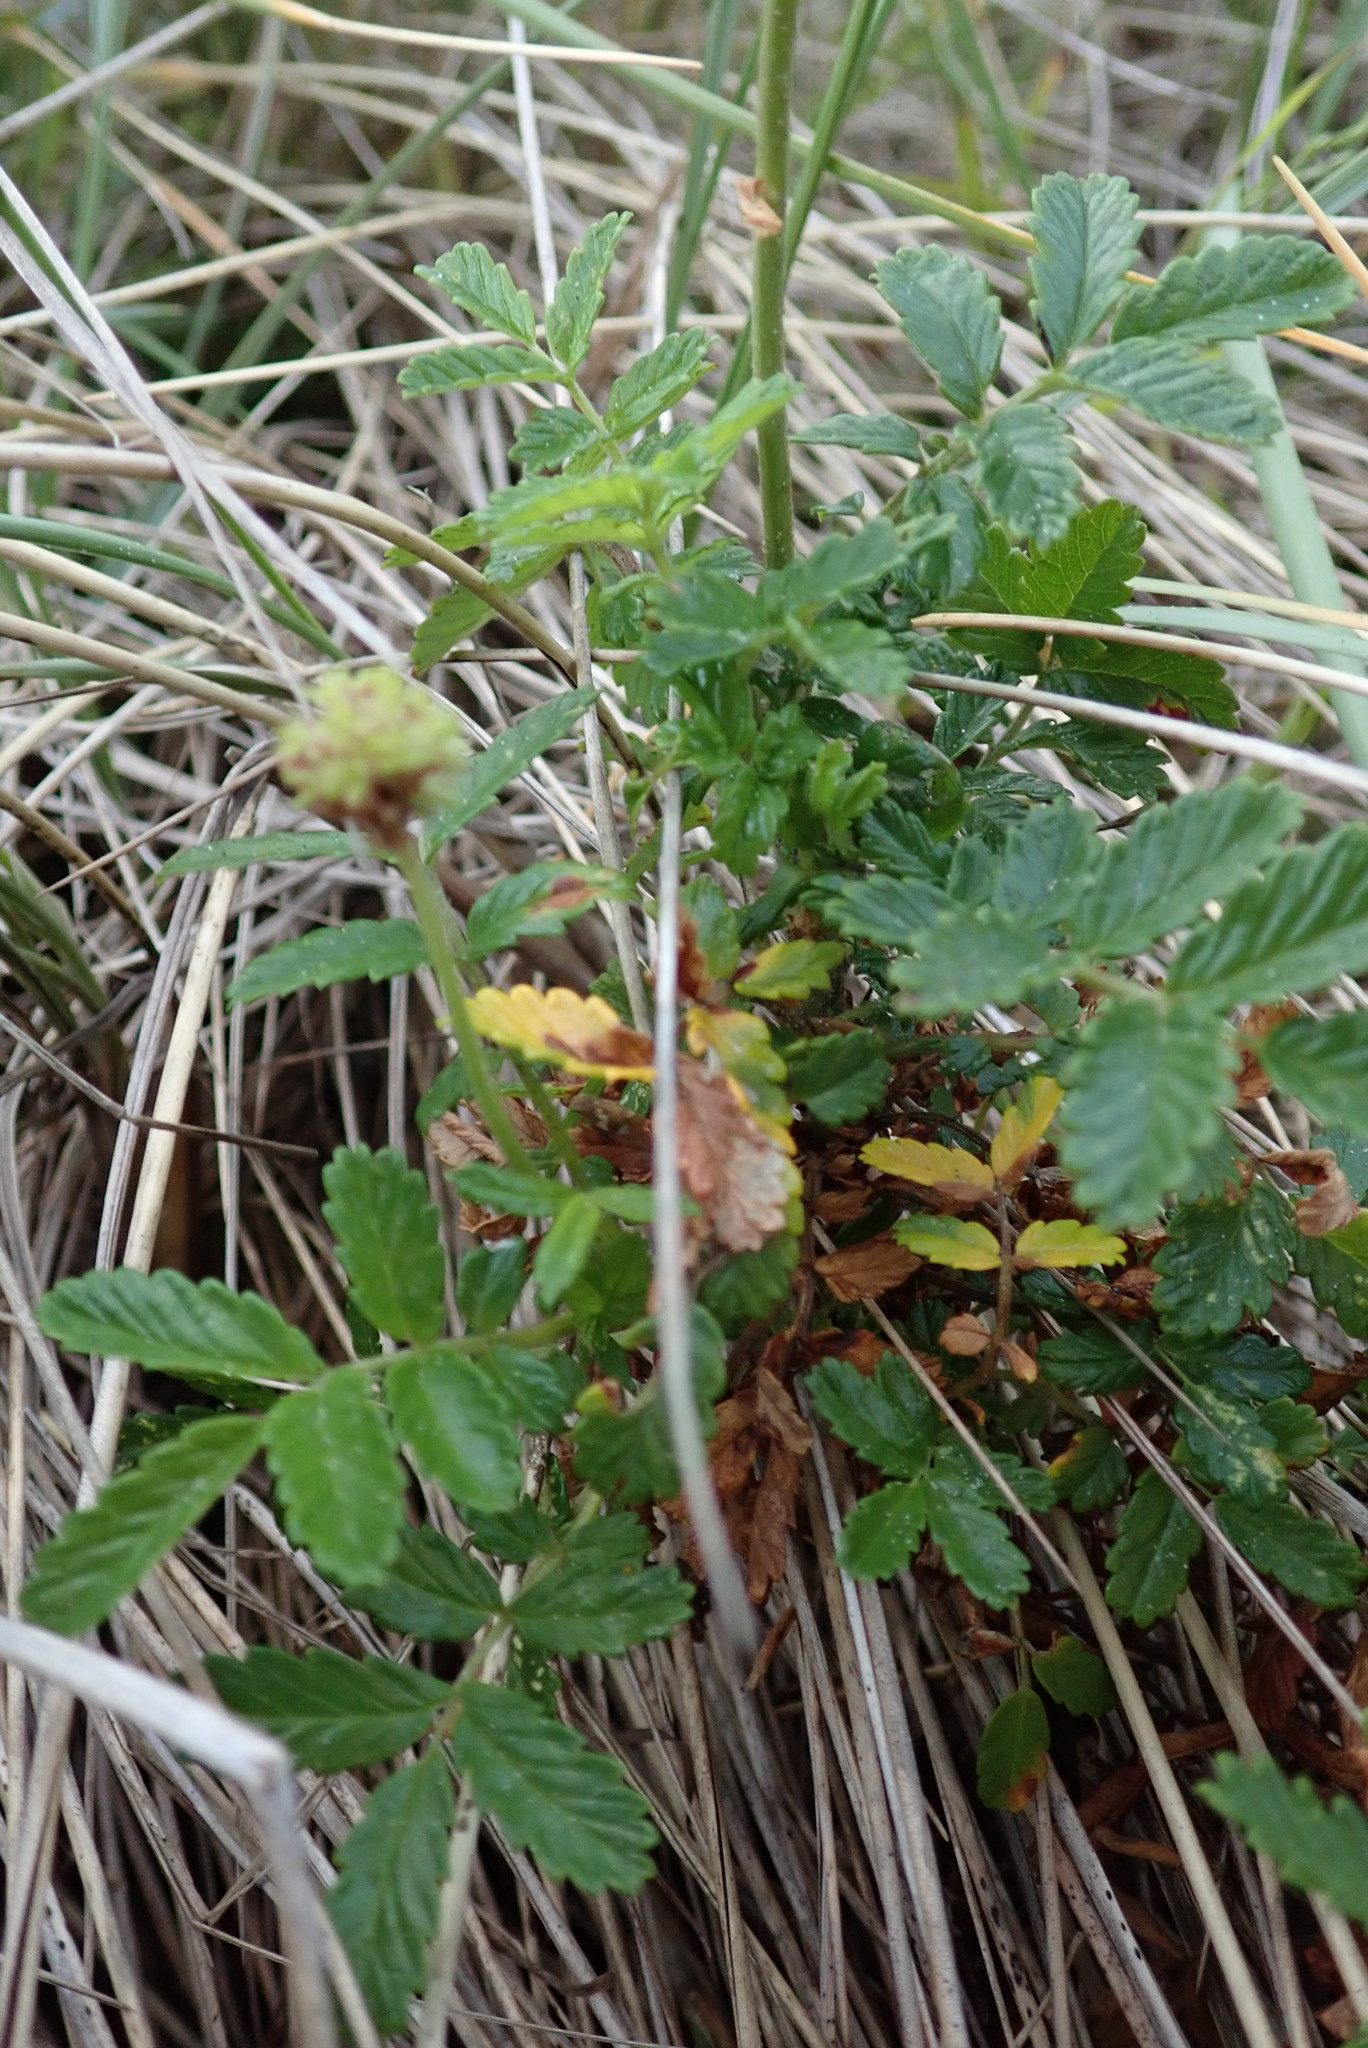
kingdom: Plantae
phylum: Tracheophyta
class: Magnoliopsida
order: Rosales
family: Rosaceae
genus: Acaena
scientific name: Acaena novae-zelandiae
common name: Pirri-pirri-bur
